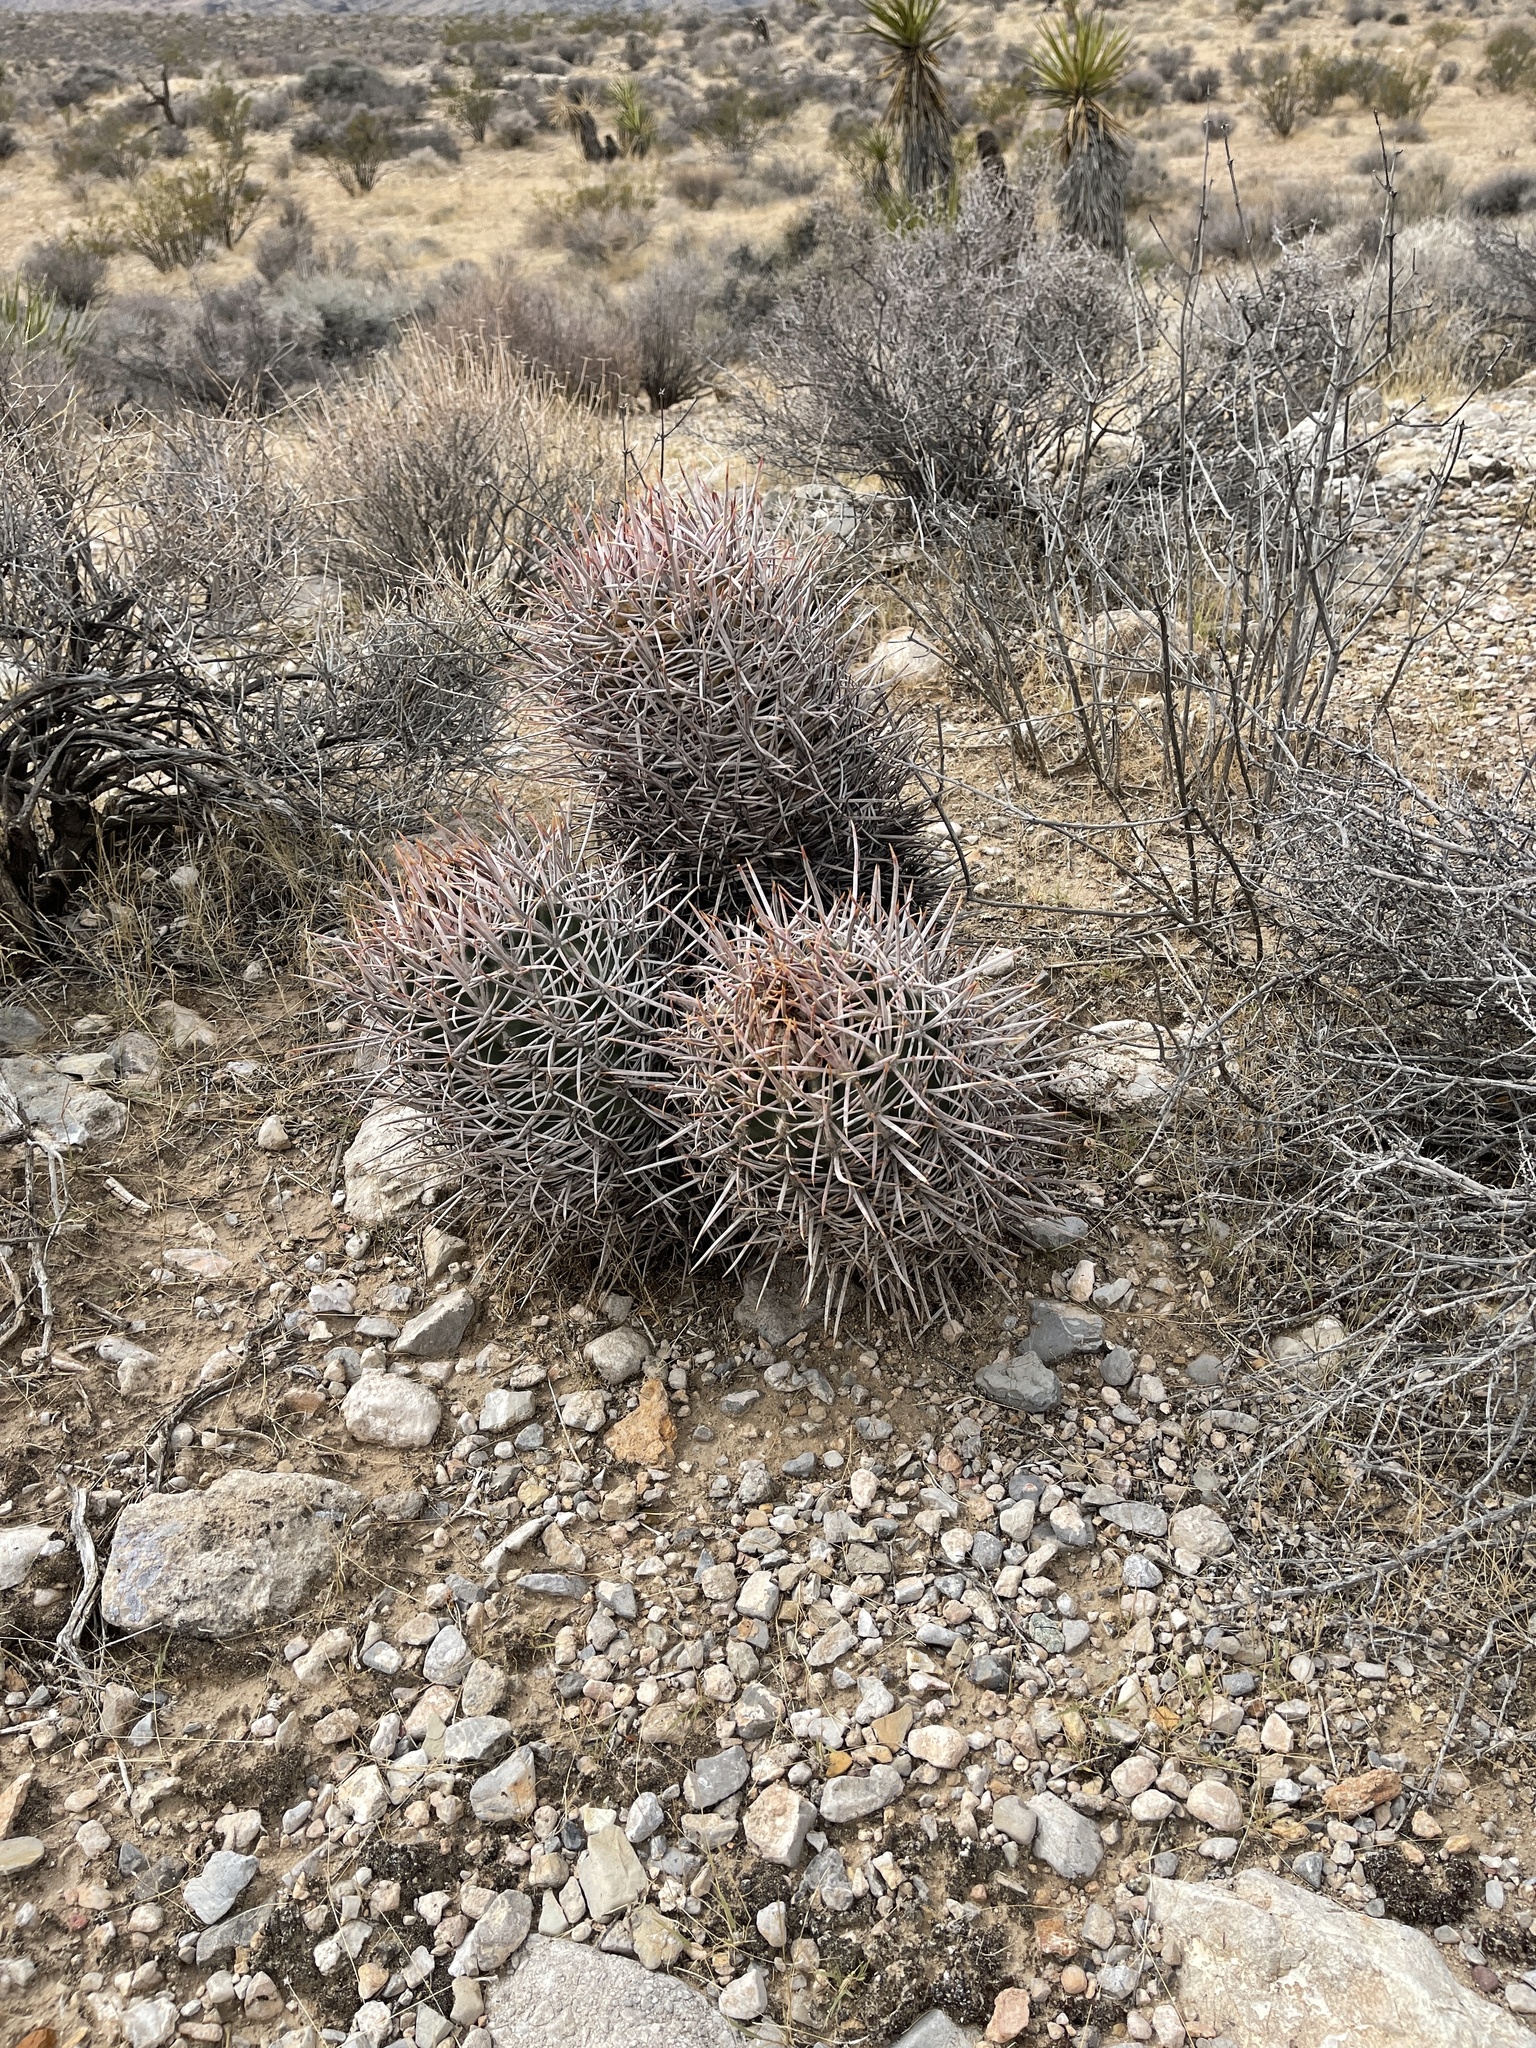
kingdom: Plantae
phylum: Tracheophyta
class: Magnoliopsida
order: Caryophyllales
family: Cactaceae
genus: Echinocactus
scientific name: Echinocactus polycephalus
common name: Cottontop cactus
